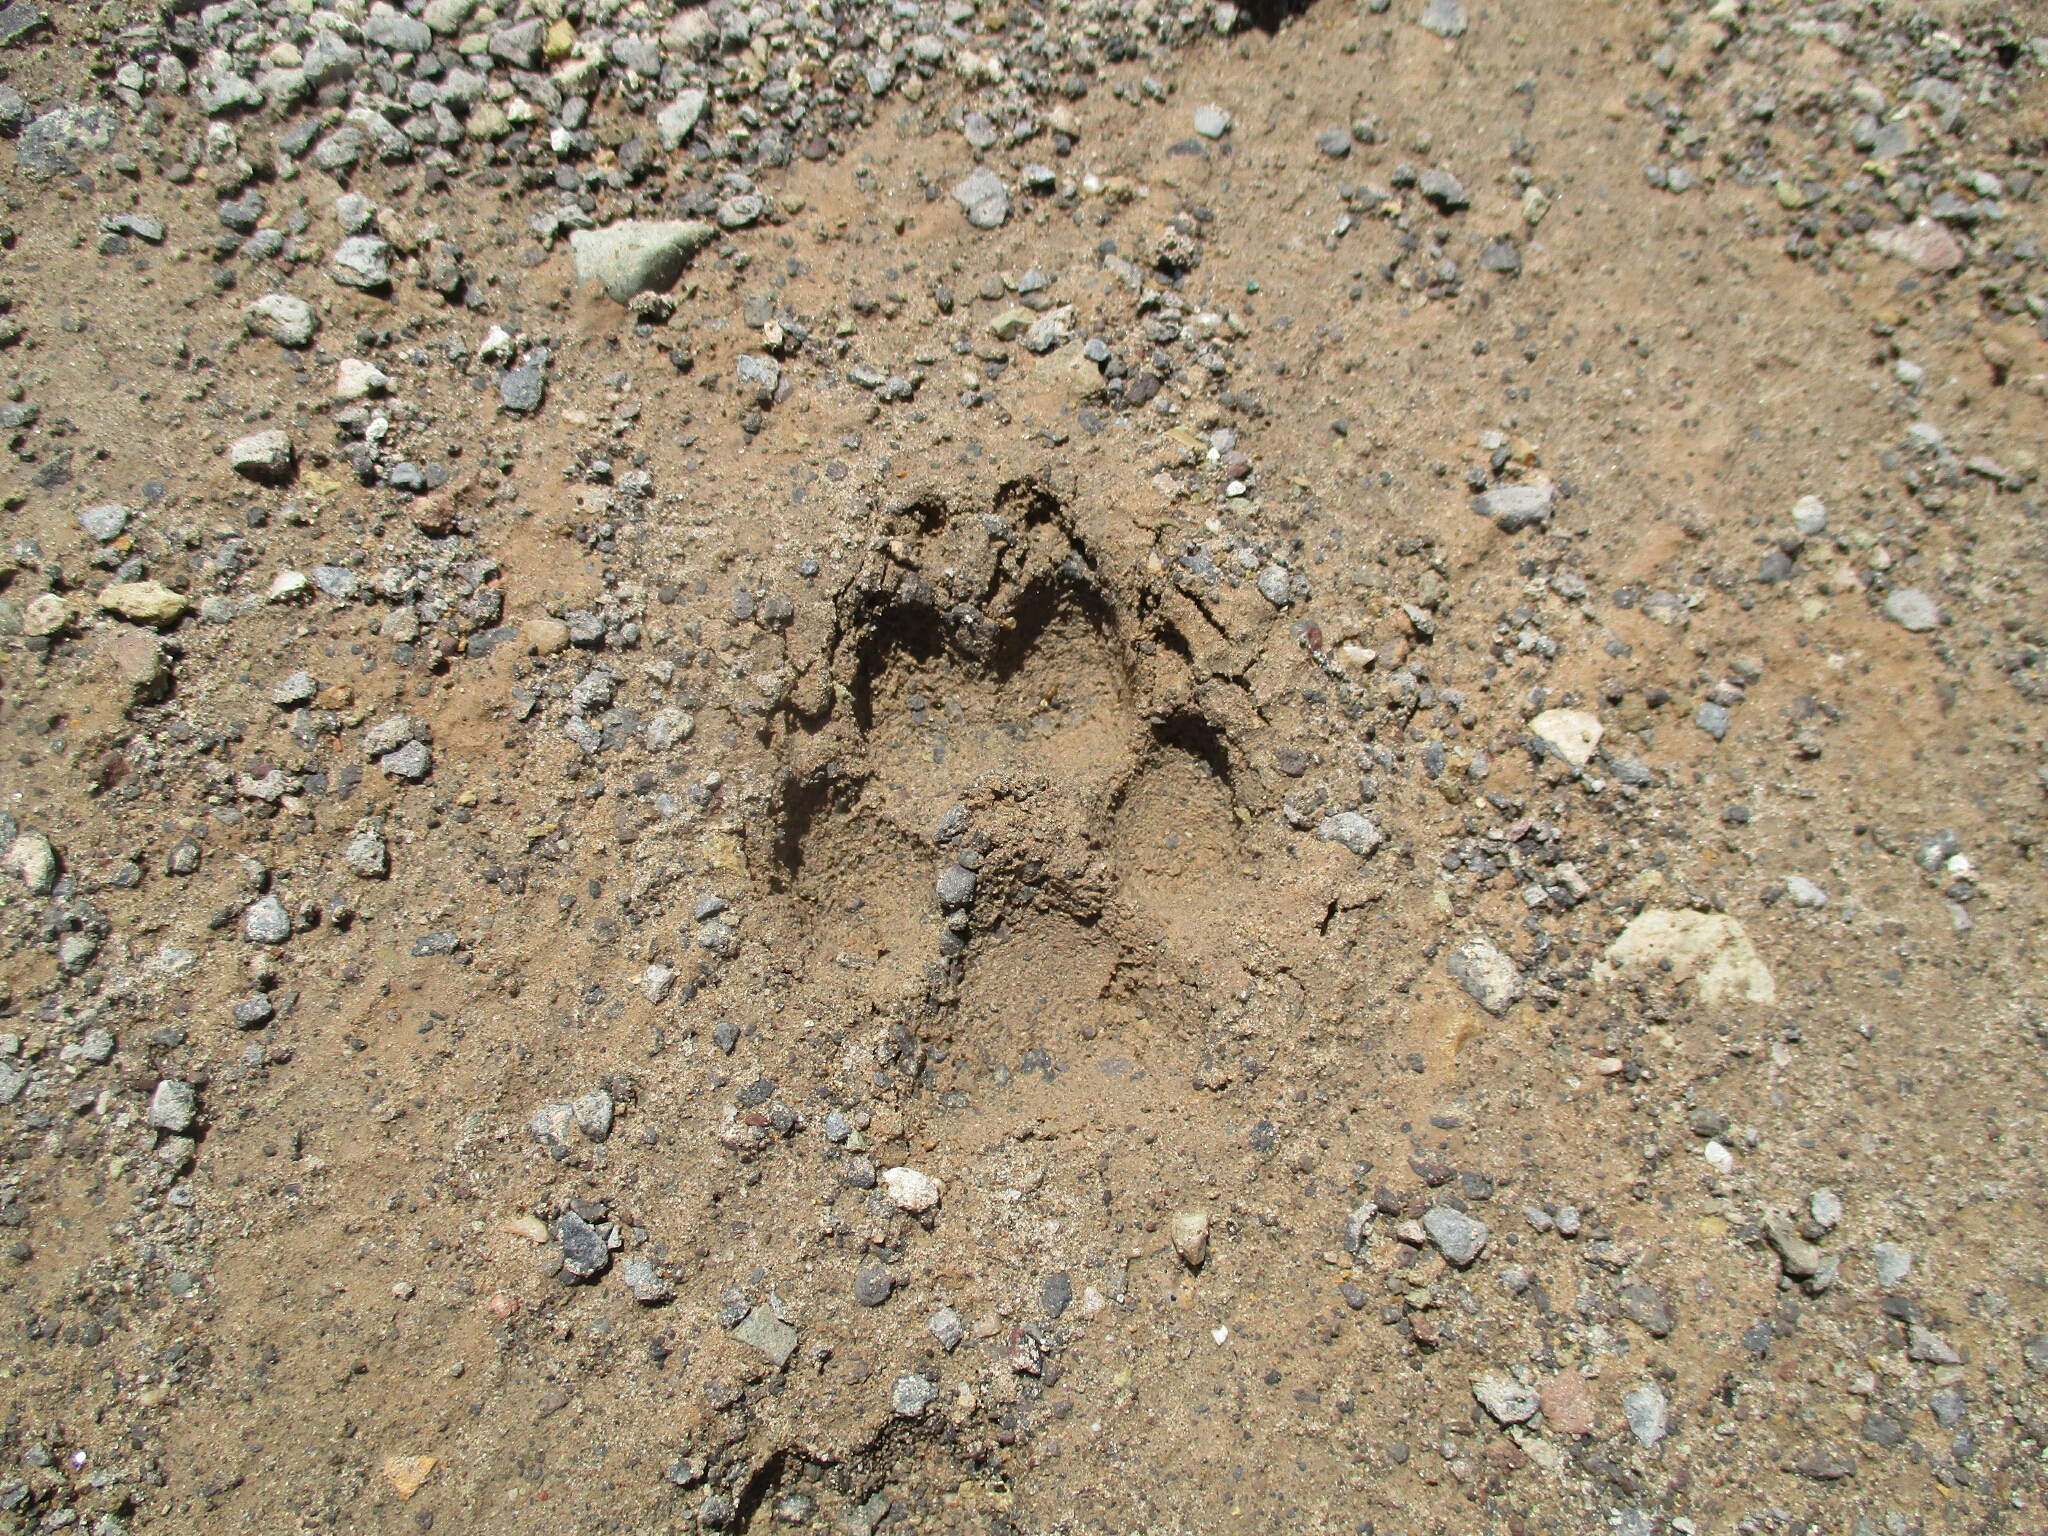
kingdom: Animalia
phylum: Chordata
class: Mammalia
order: Carnivora
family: Canidae
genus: Canis
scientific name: Canis latrans
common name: Coyote
